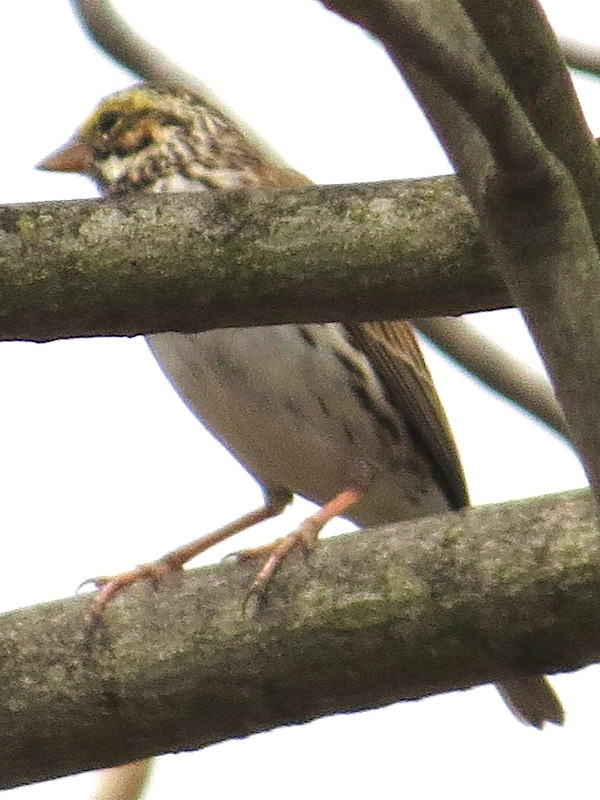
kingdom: Animalia
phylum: Chordata
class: Aves
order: Passeriformes
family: Passerellidae
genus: Passerculus
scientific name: Passerculus sandwichensis
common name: Savannah sparrow
